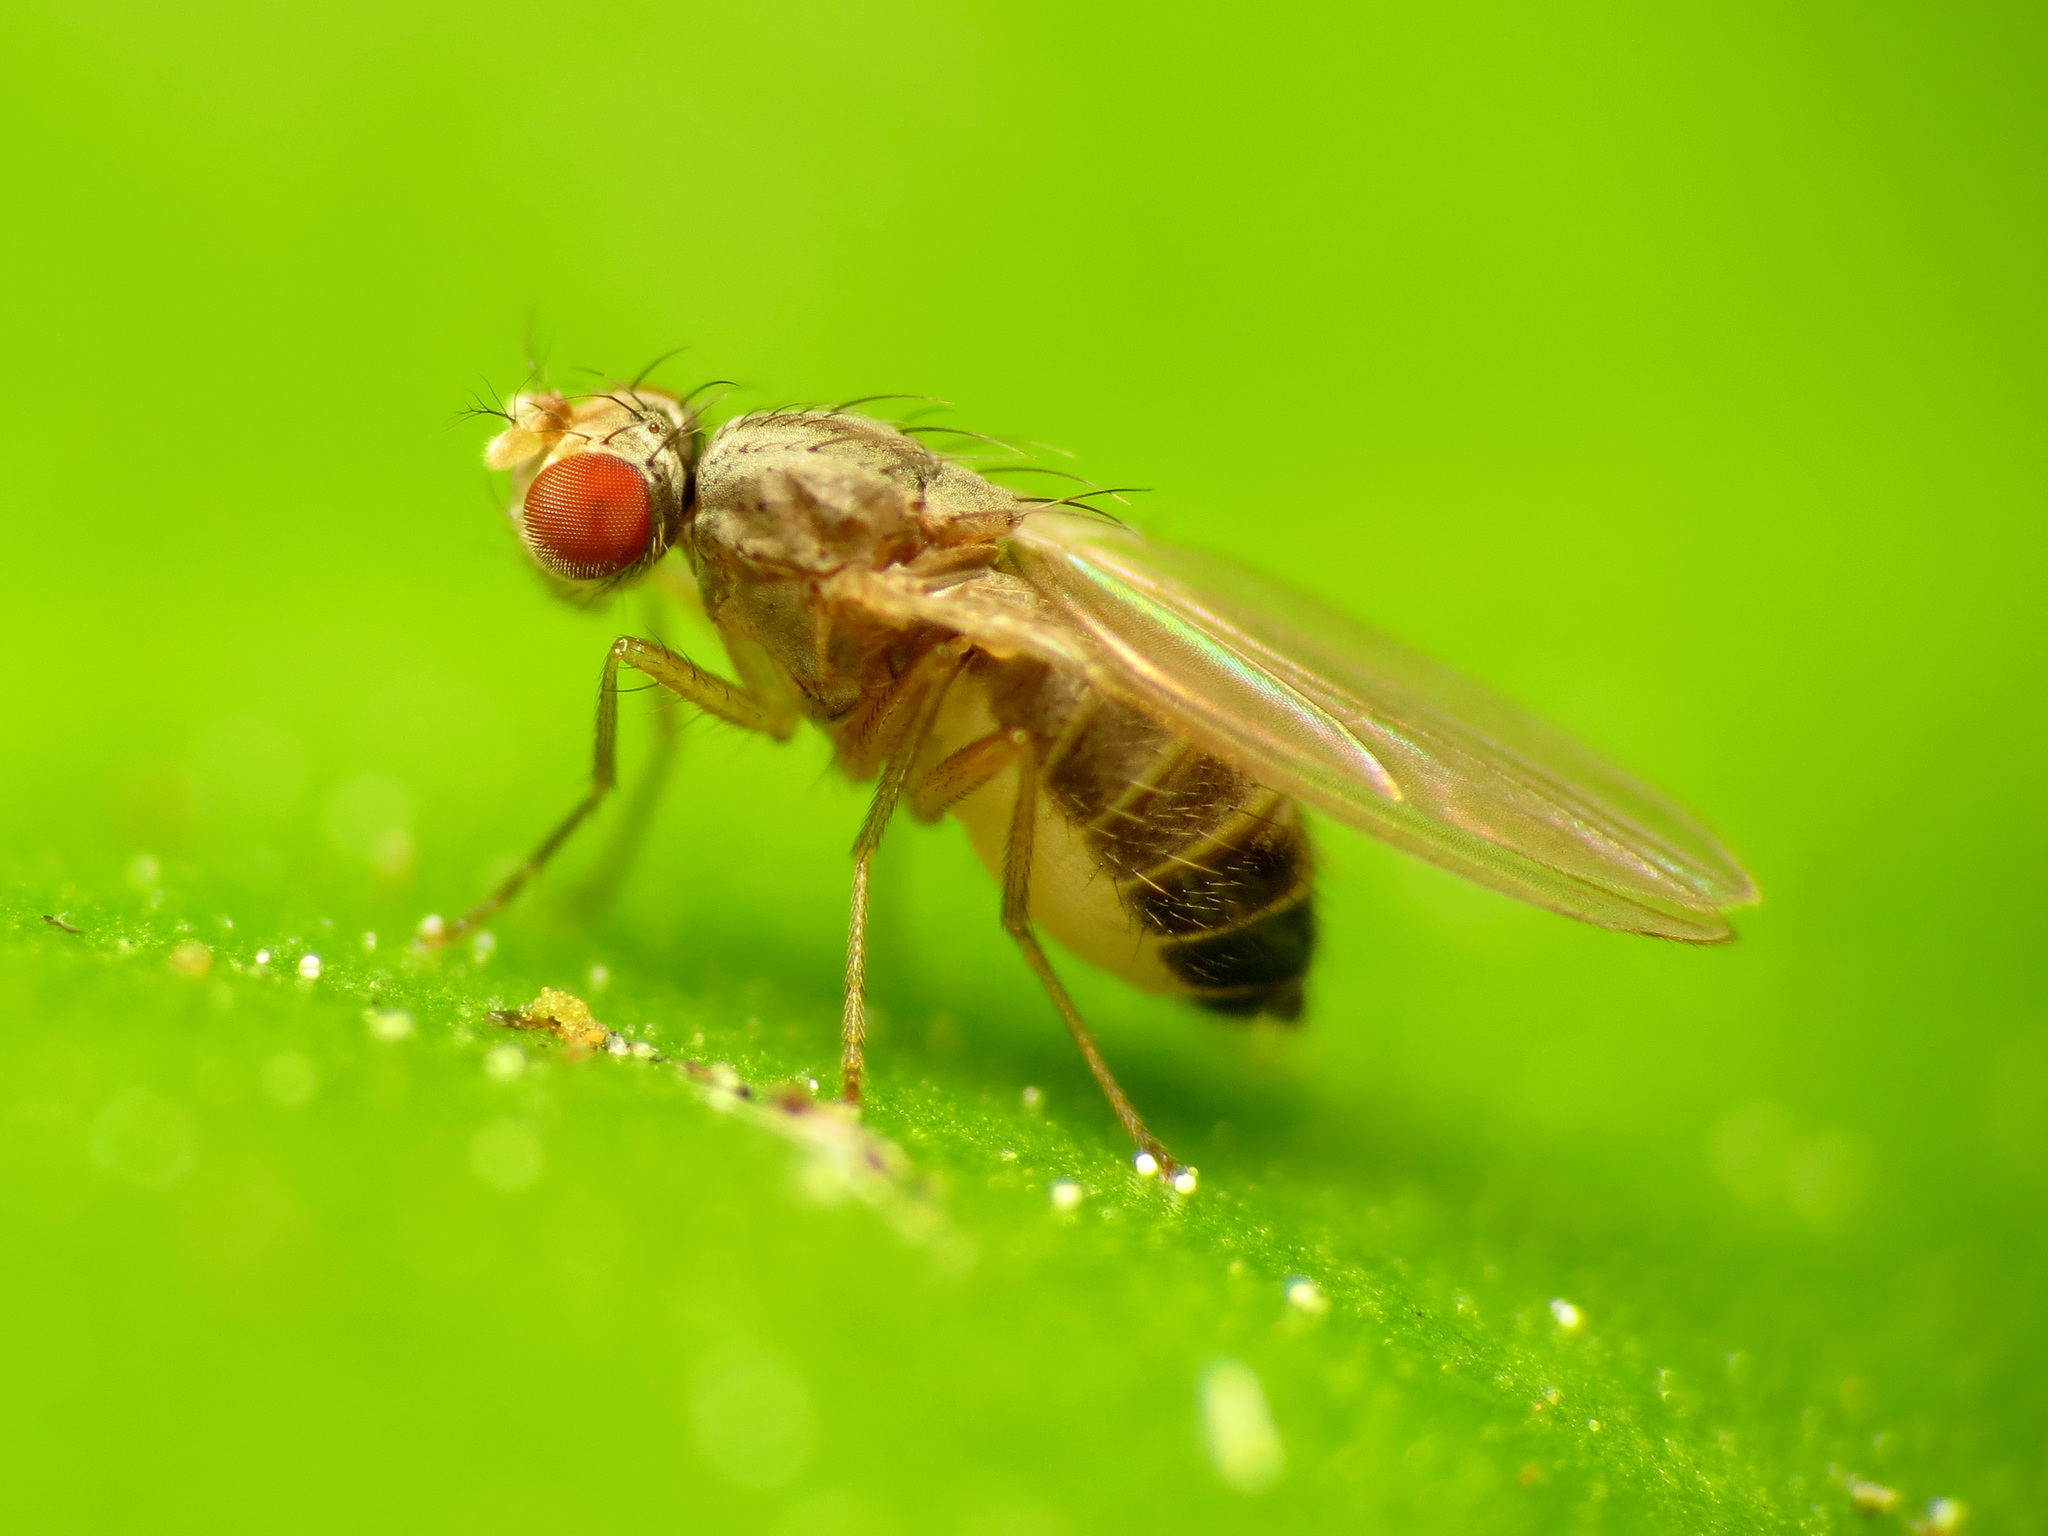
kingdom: Animalia
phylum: Arthropoda
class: Insecta
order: Diptera
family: Drosophilidae
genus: Scaptomyza
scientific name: Scaptomyza pallida
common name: Pomace fly
